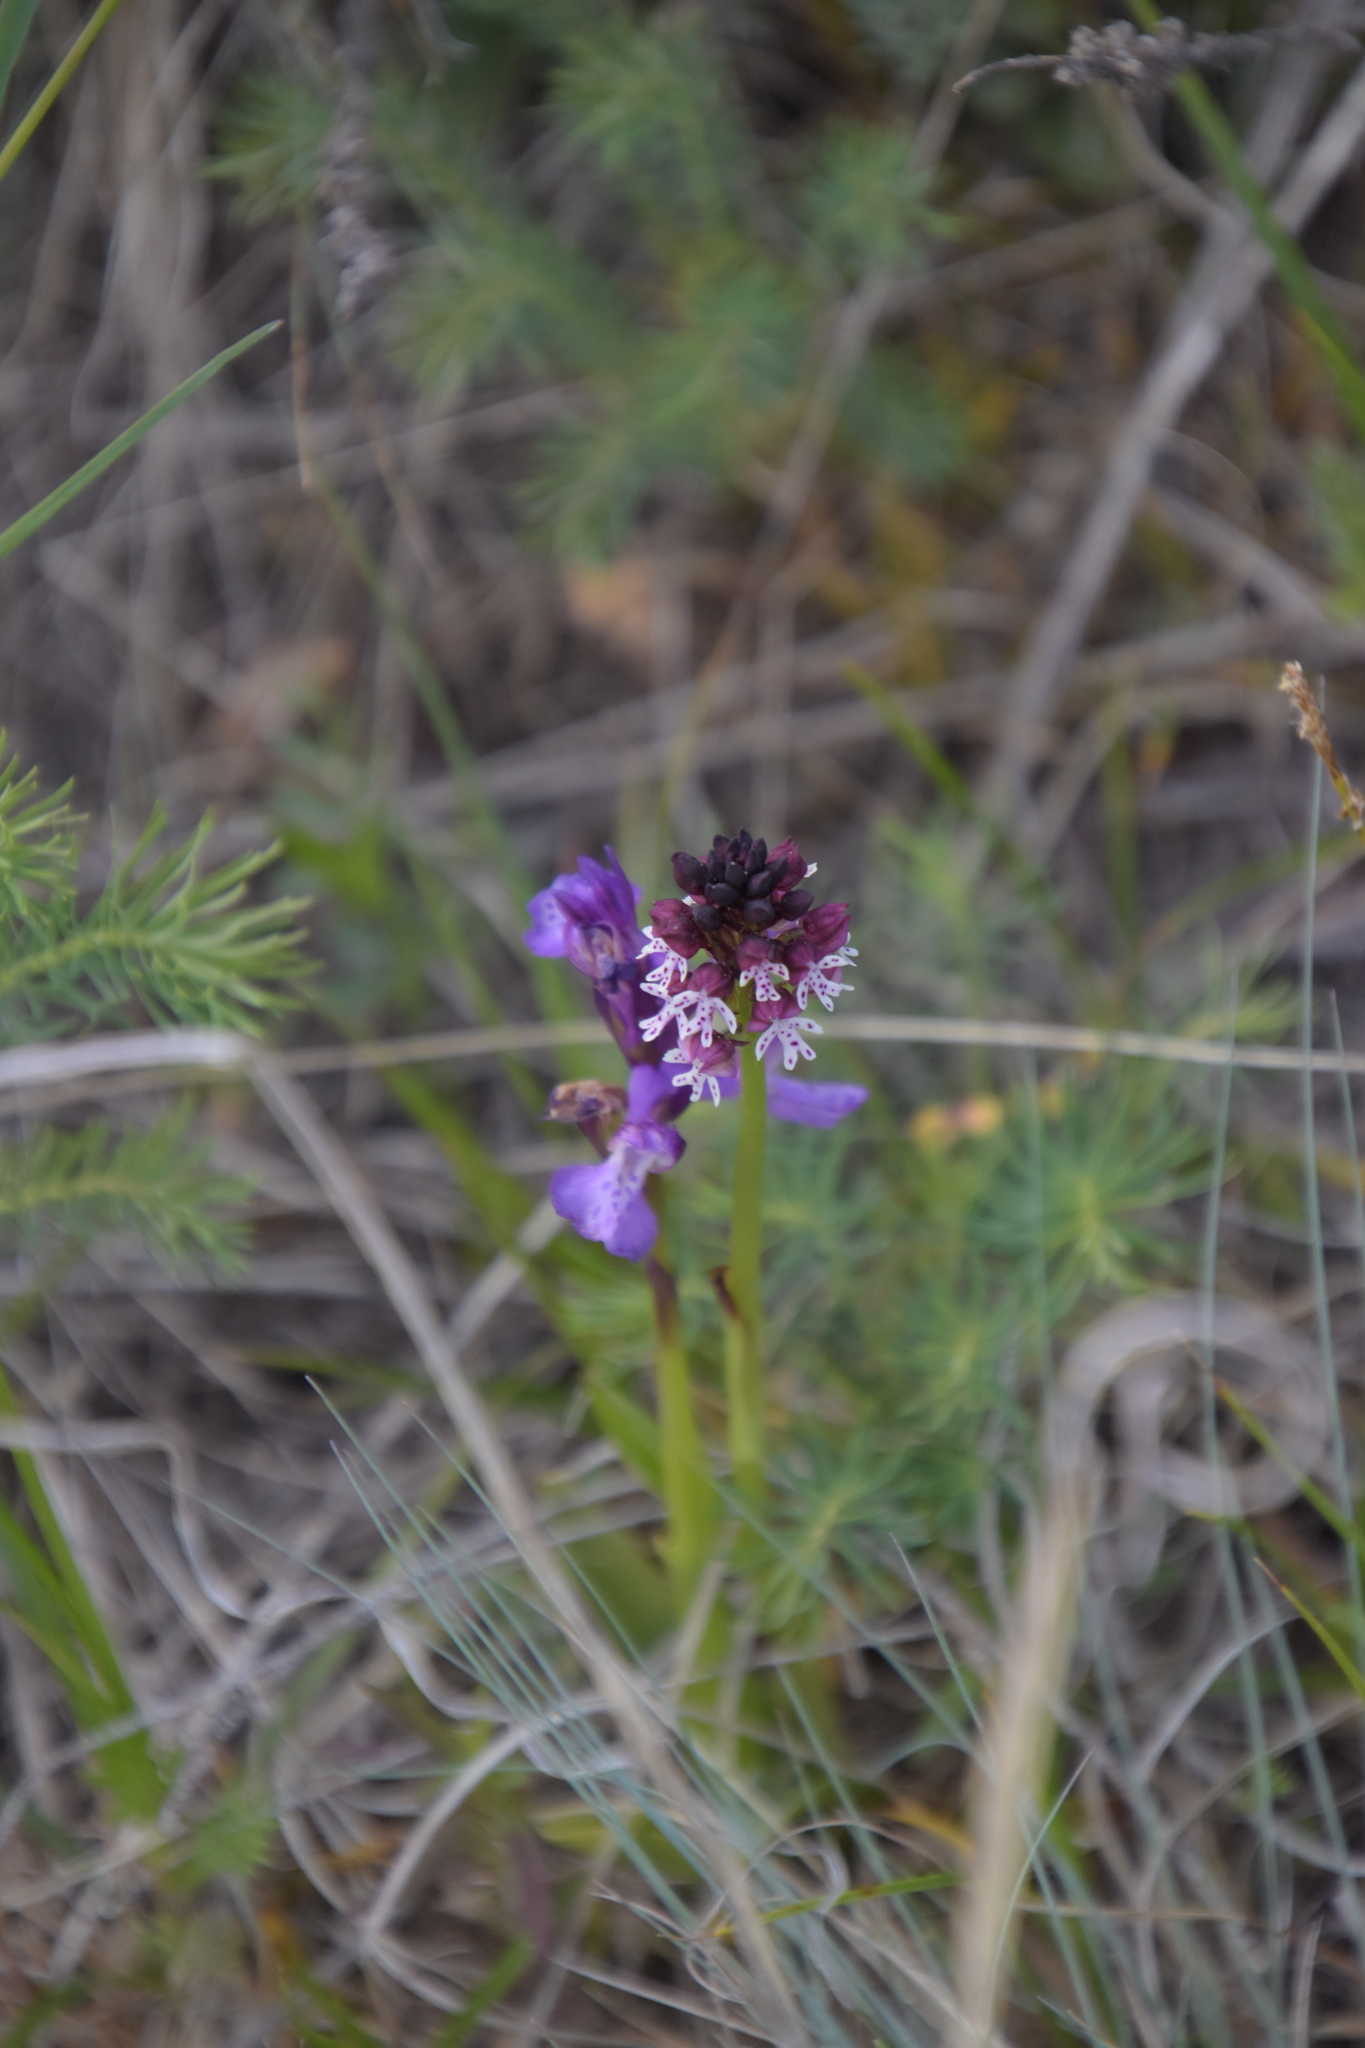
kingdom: Plantae
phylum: Tracheophyta
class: Liliopsida
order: Asparagales
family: Orchidaceae
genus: Neotinea
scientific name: Neotinea ustulata
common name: Burnt orchid
